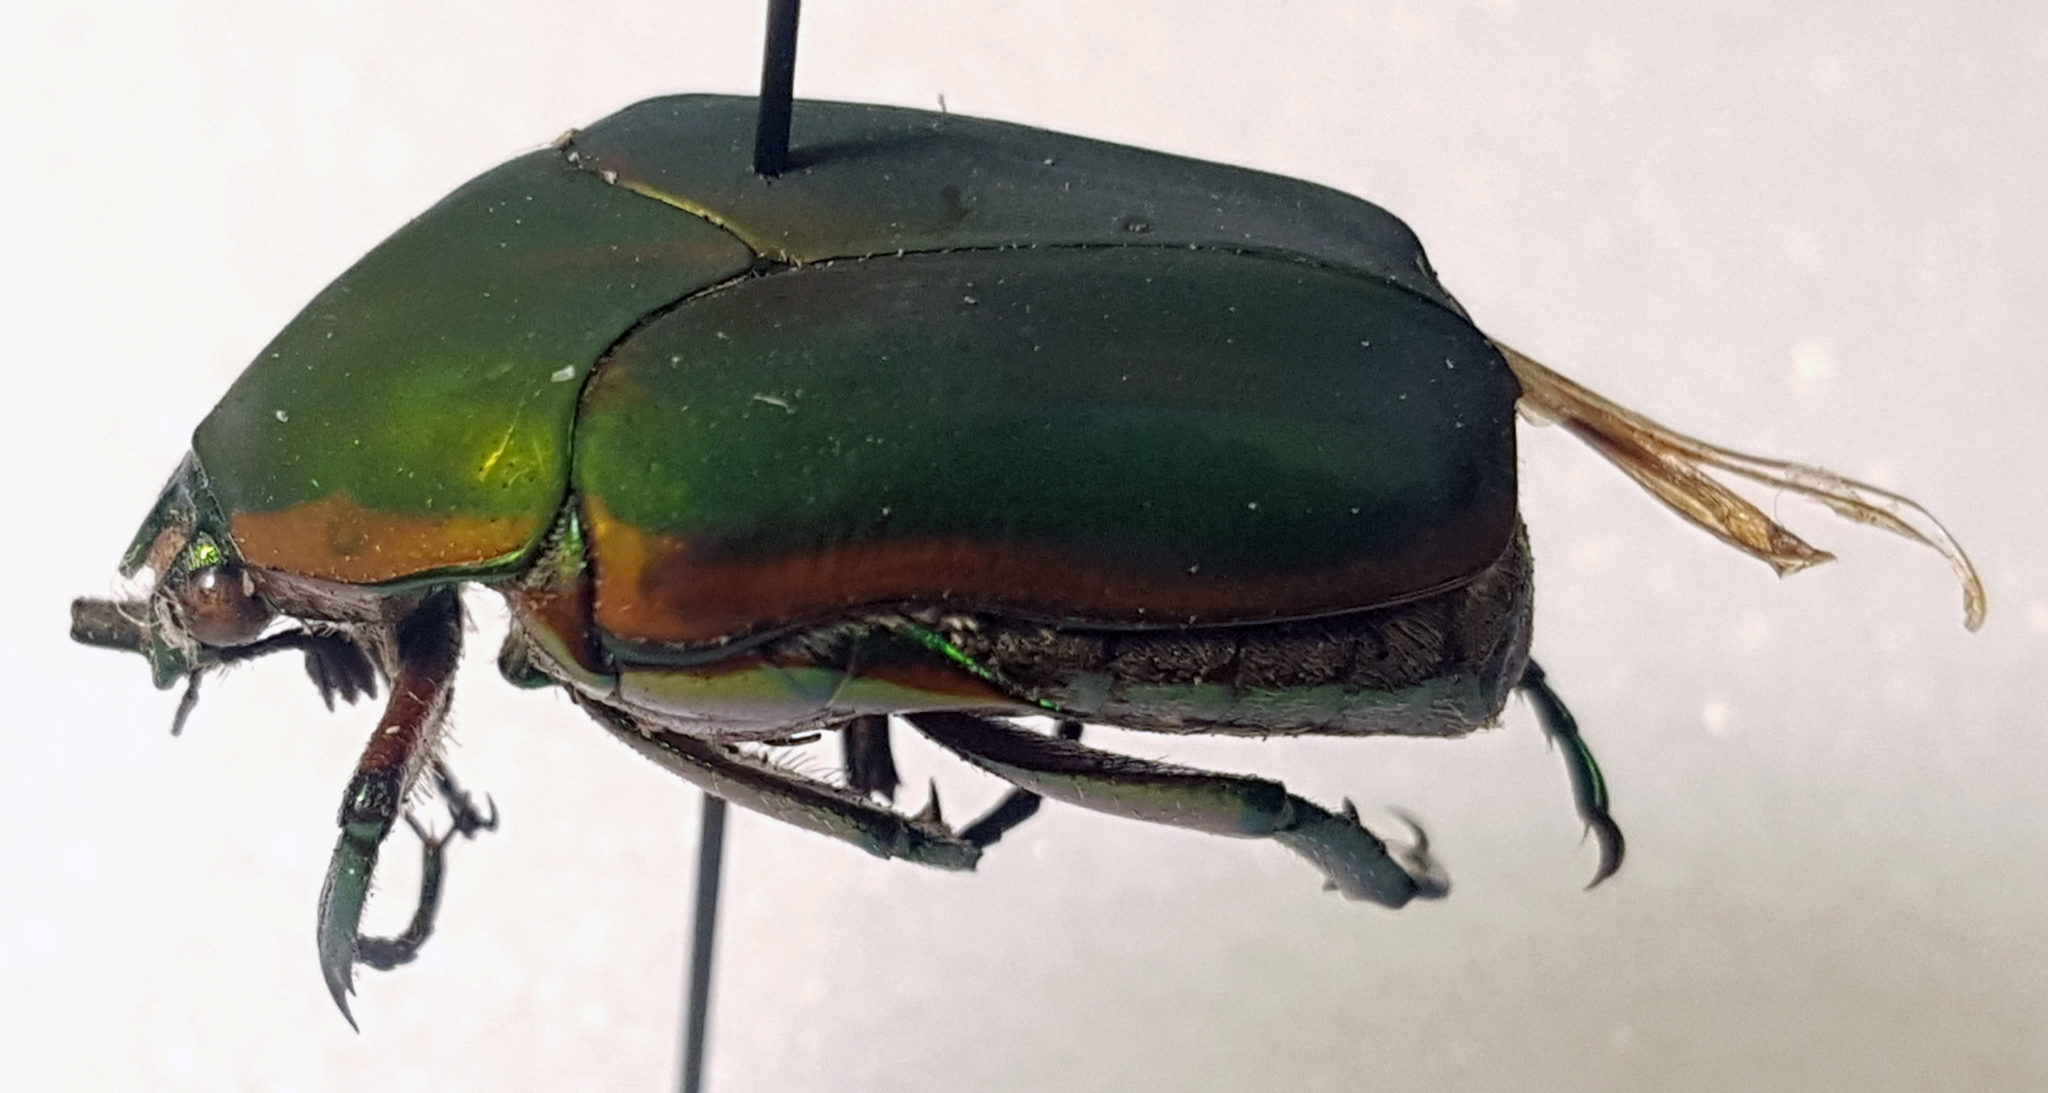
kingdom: Animalia
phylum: Arthropoda
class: Insecta
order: Coleoptera
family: Scarabaeidae
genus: Cotinis
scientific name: Cotinis nitida
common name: Common green june beetle
